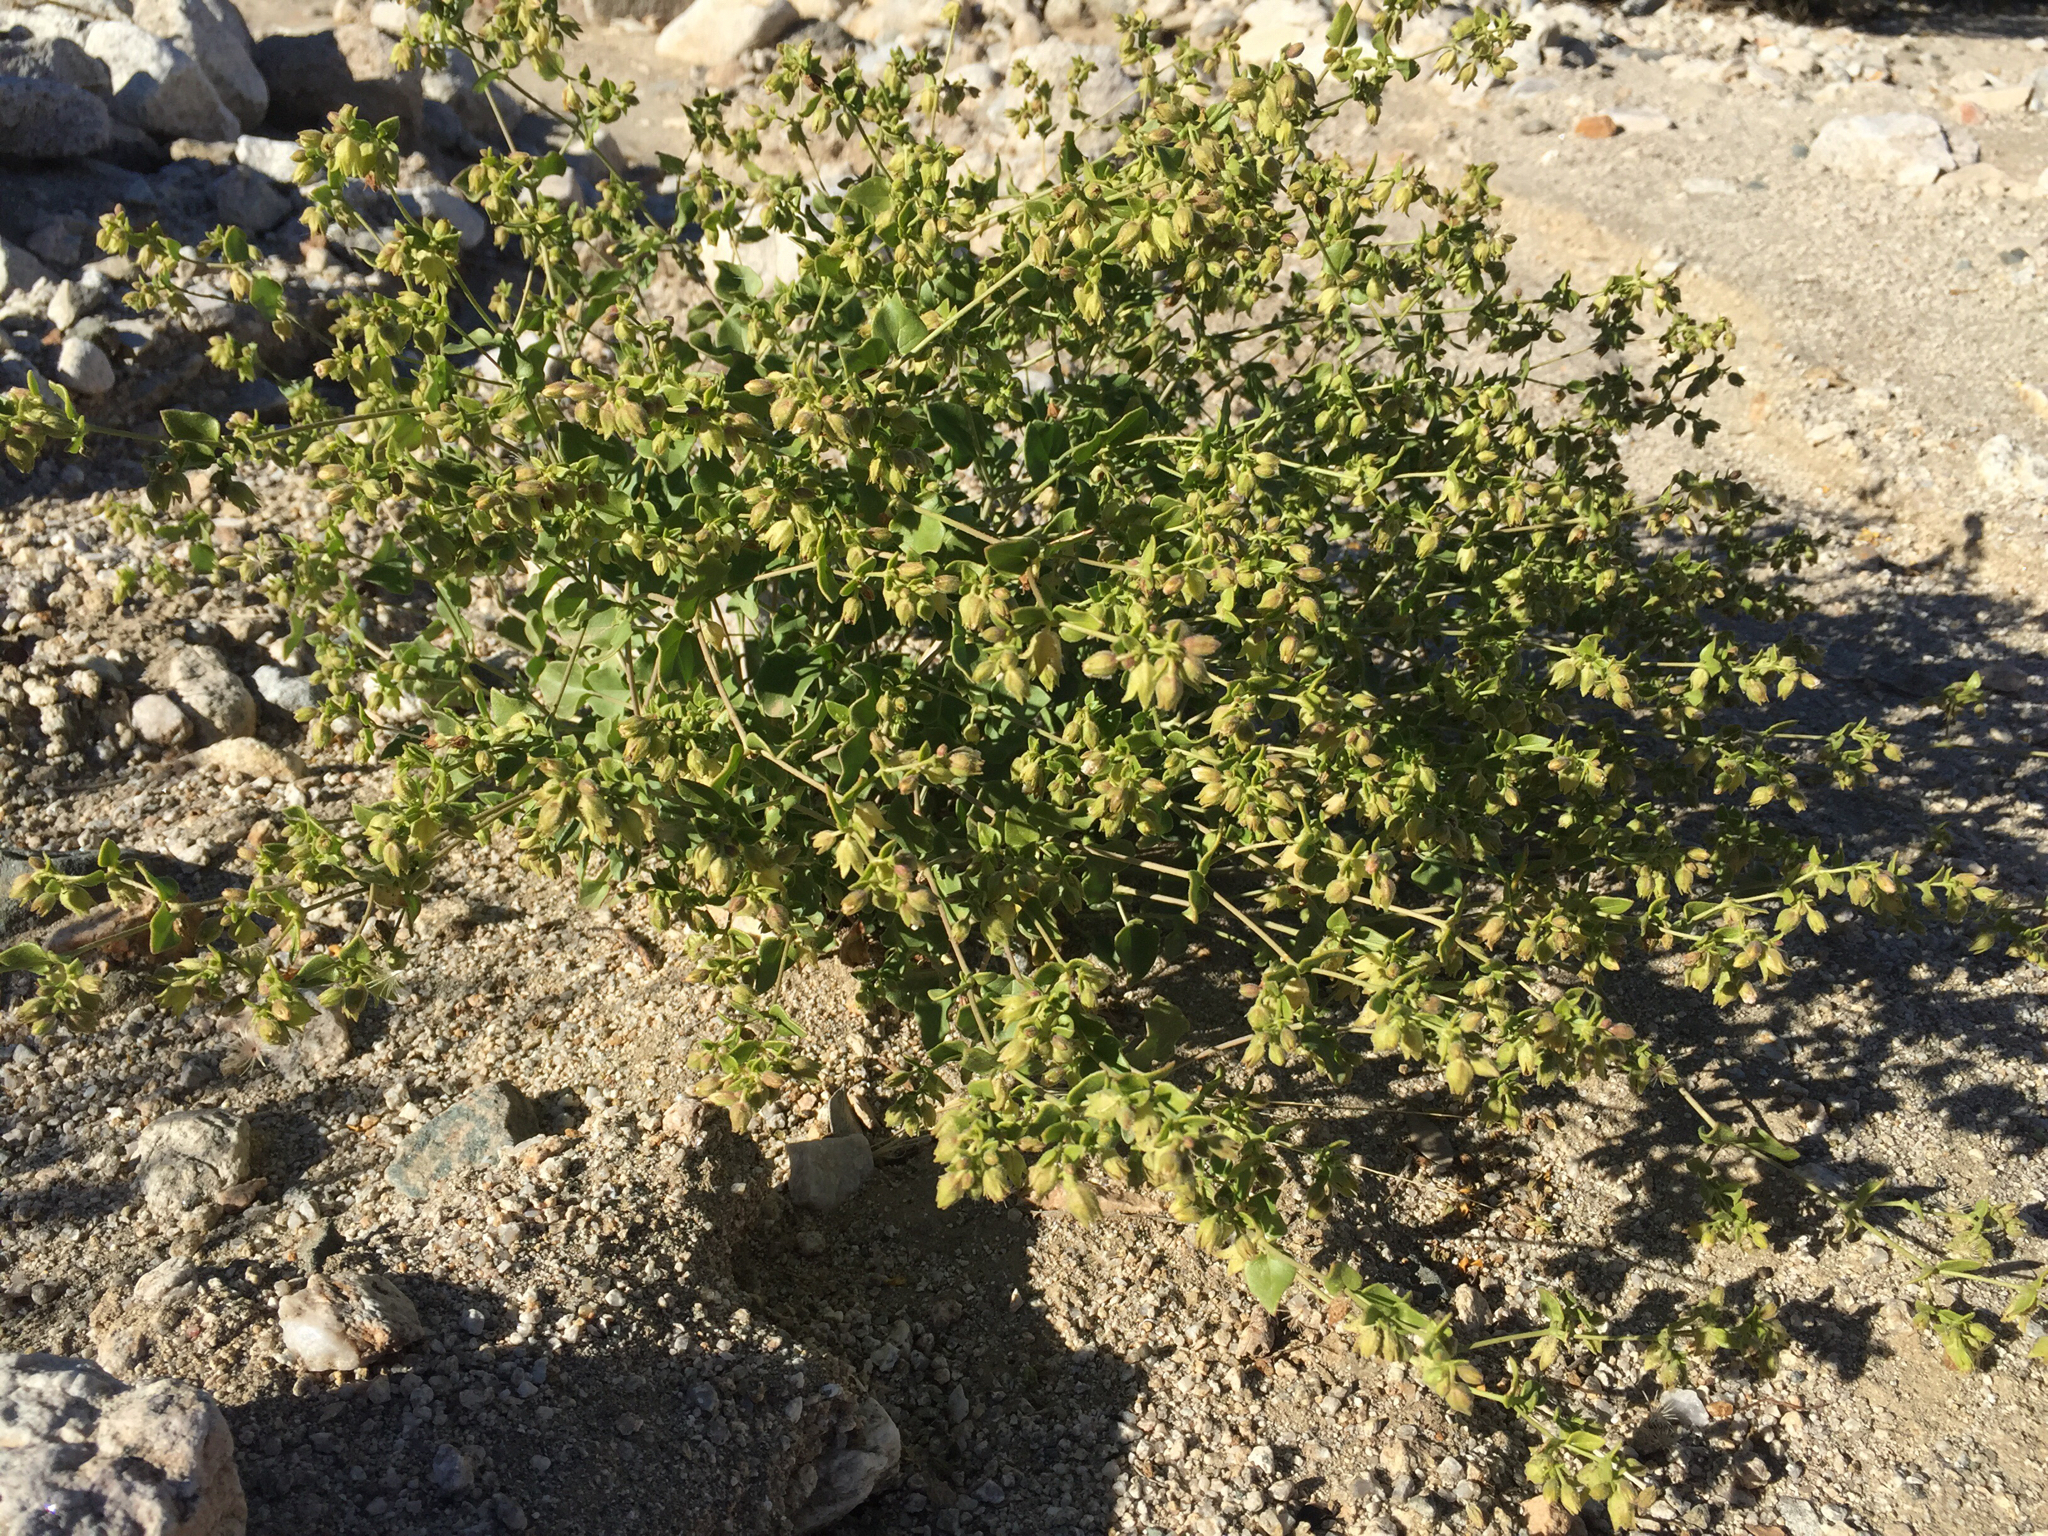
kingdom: Plantae
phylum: Tracheophyta
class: Magnoliopsida
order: Caryophyllales
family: Nyctaginaceae
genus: Mirabilis
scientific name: Mirabilis laevis
